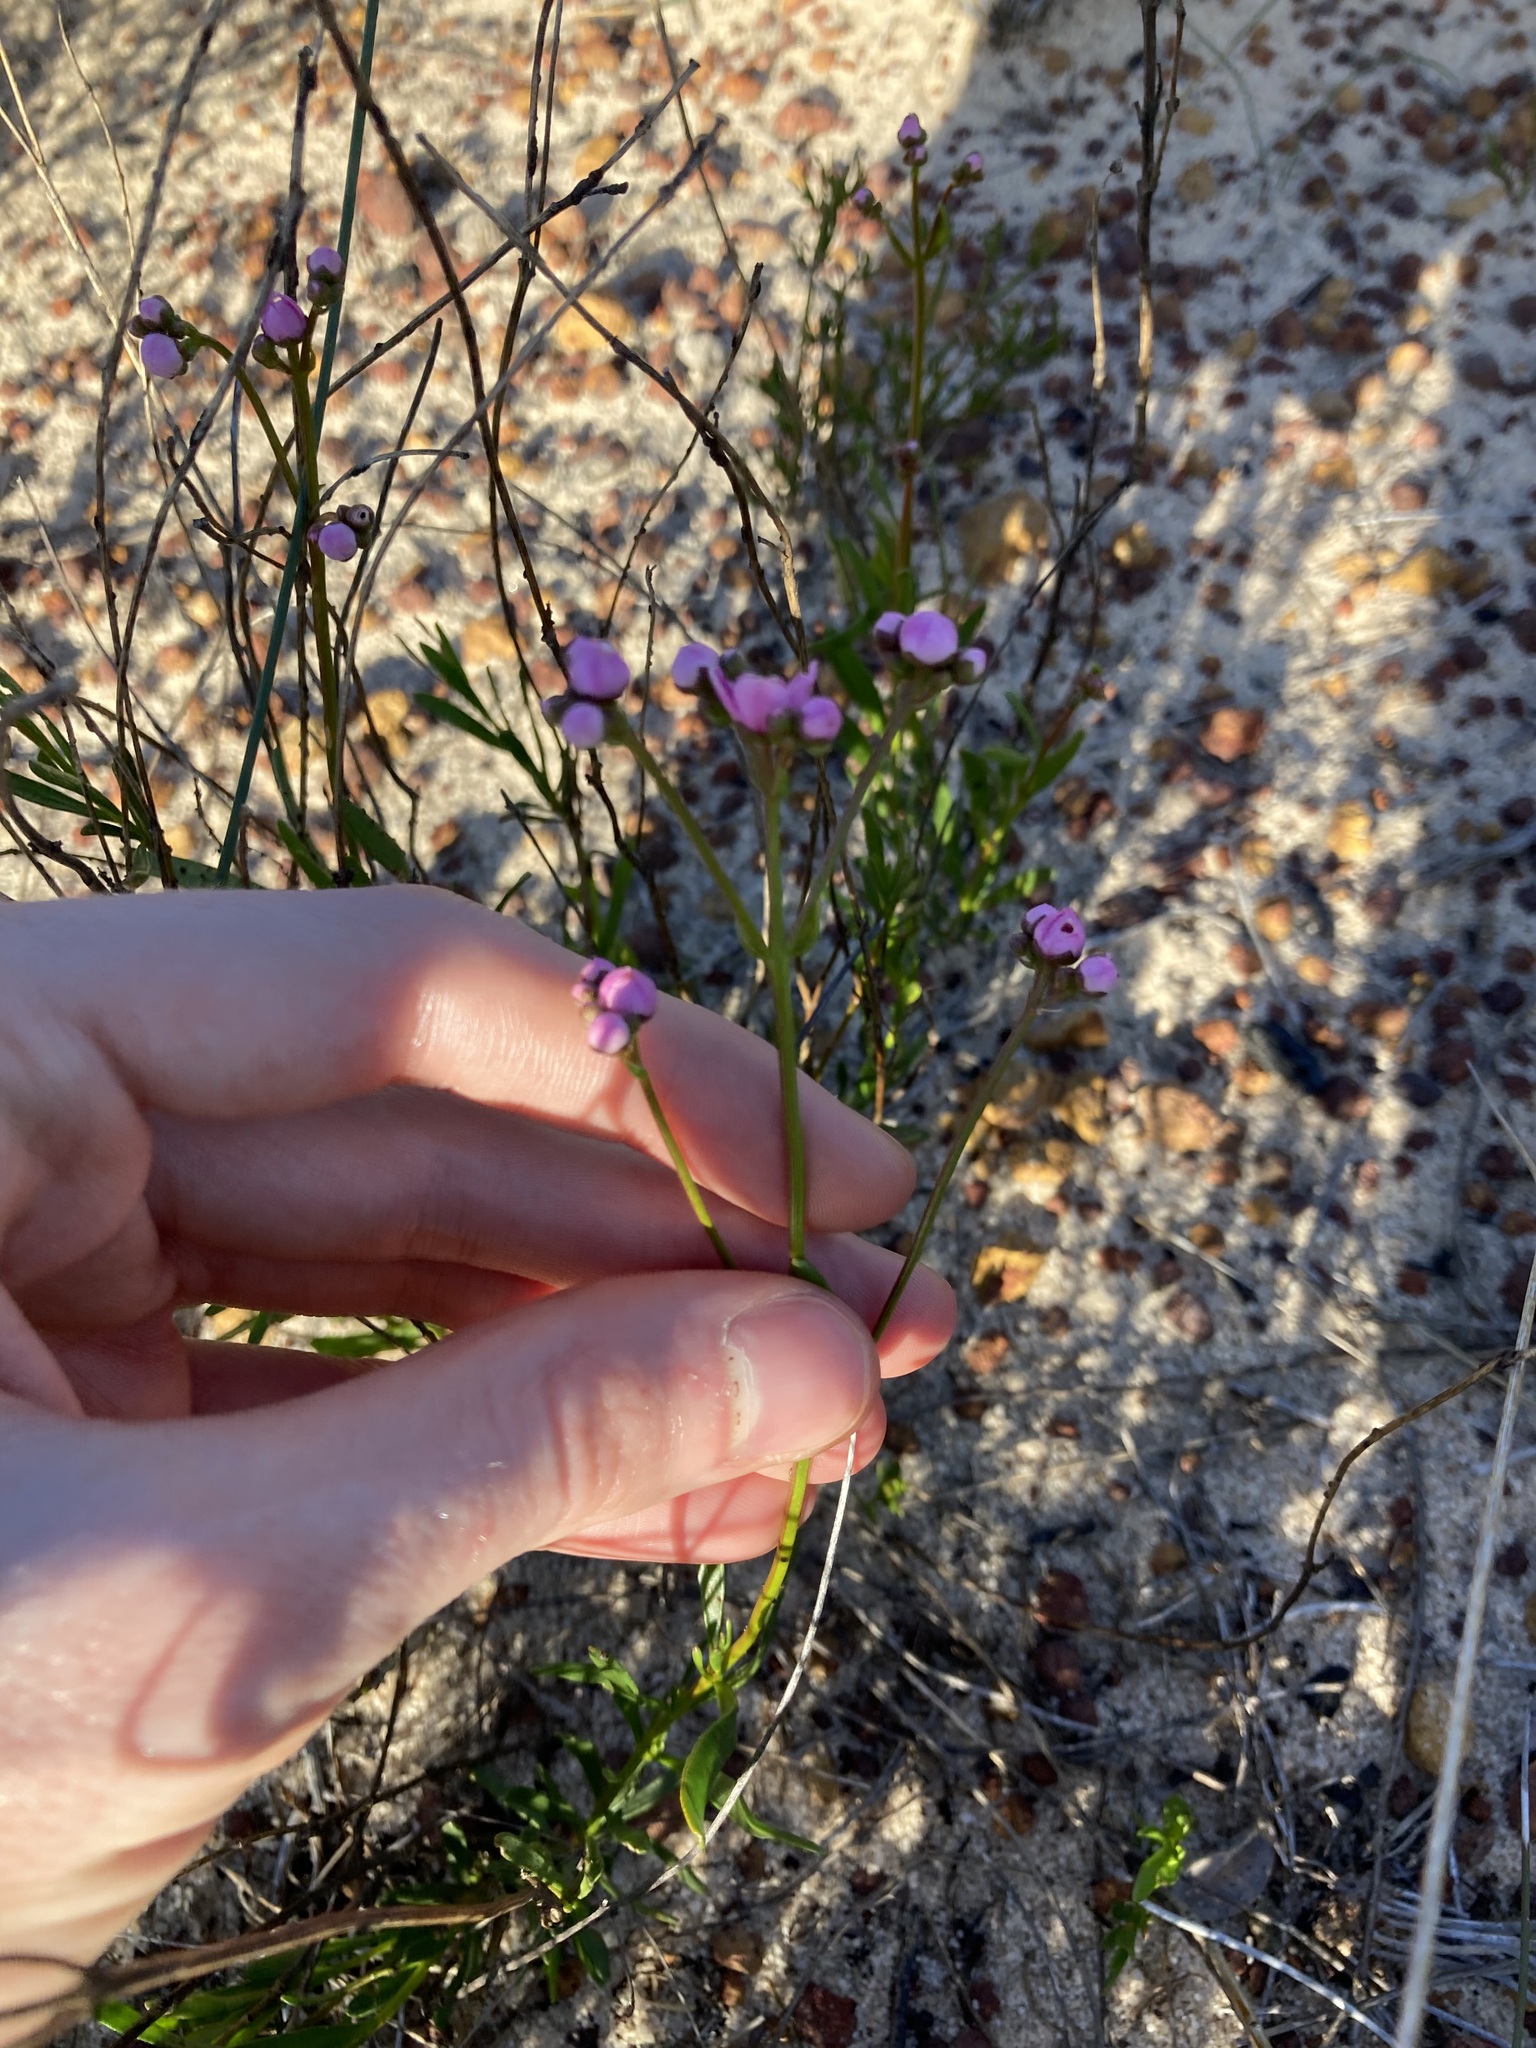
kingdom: Plantae
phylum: Tracheophyta
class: Magnoliopsida
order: Sapindales
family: Rutaceae
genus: Boronia
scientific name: Boronia cymosa
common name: Granite boronia
